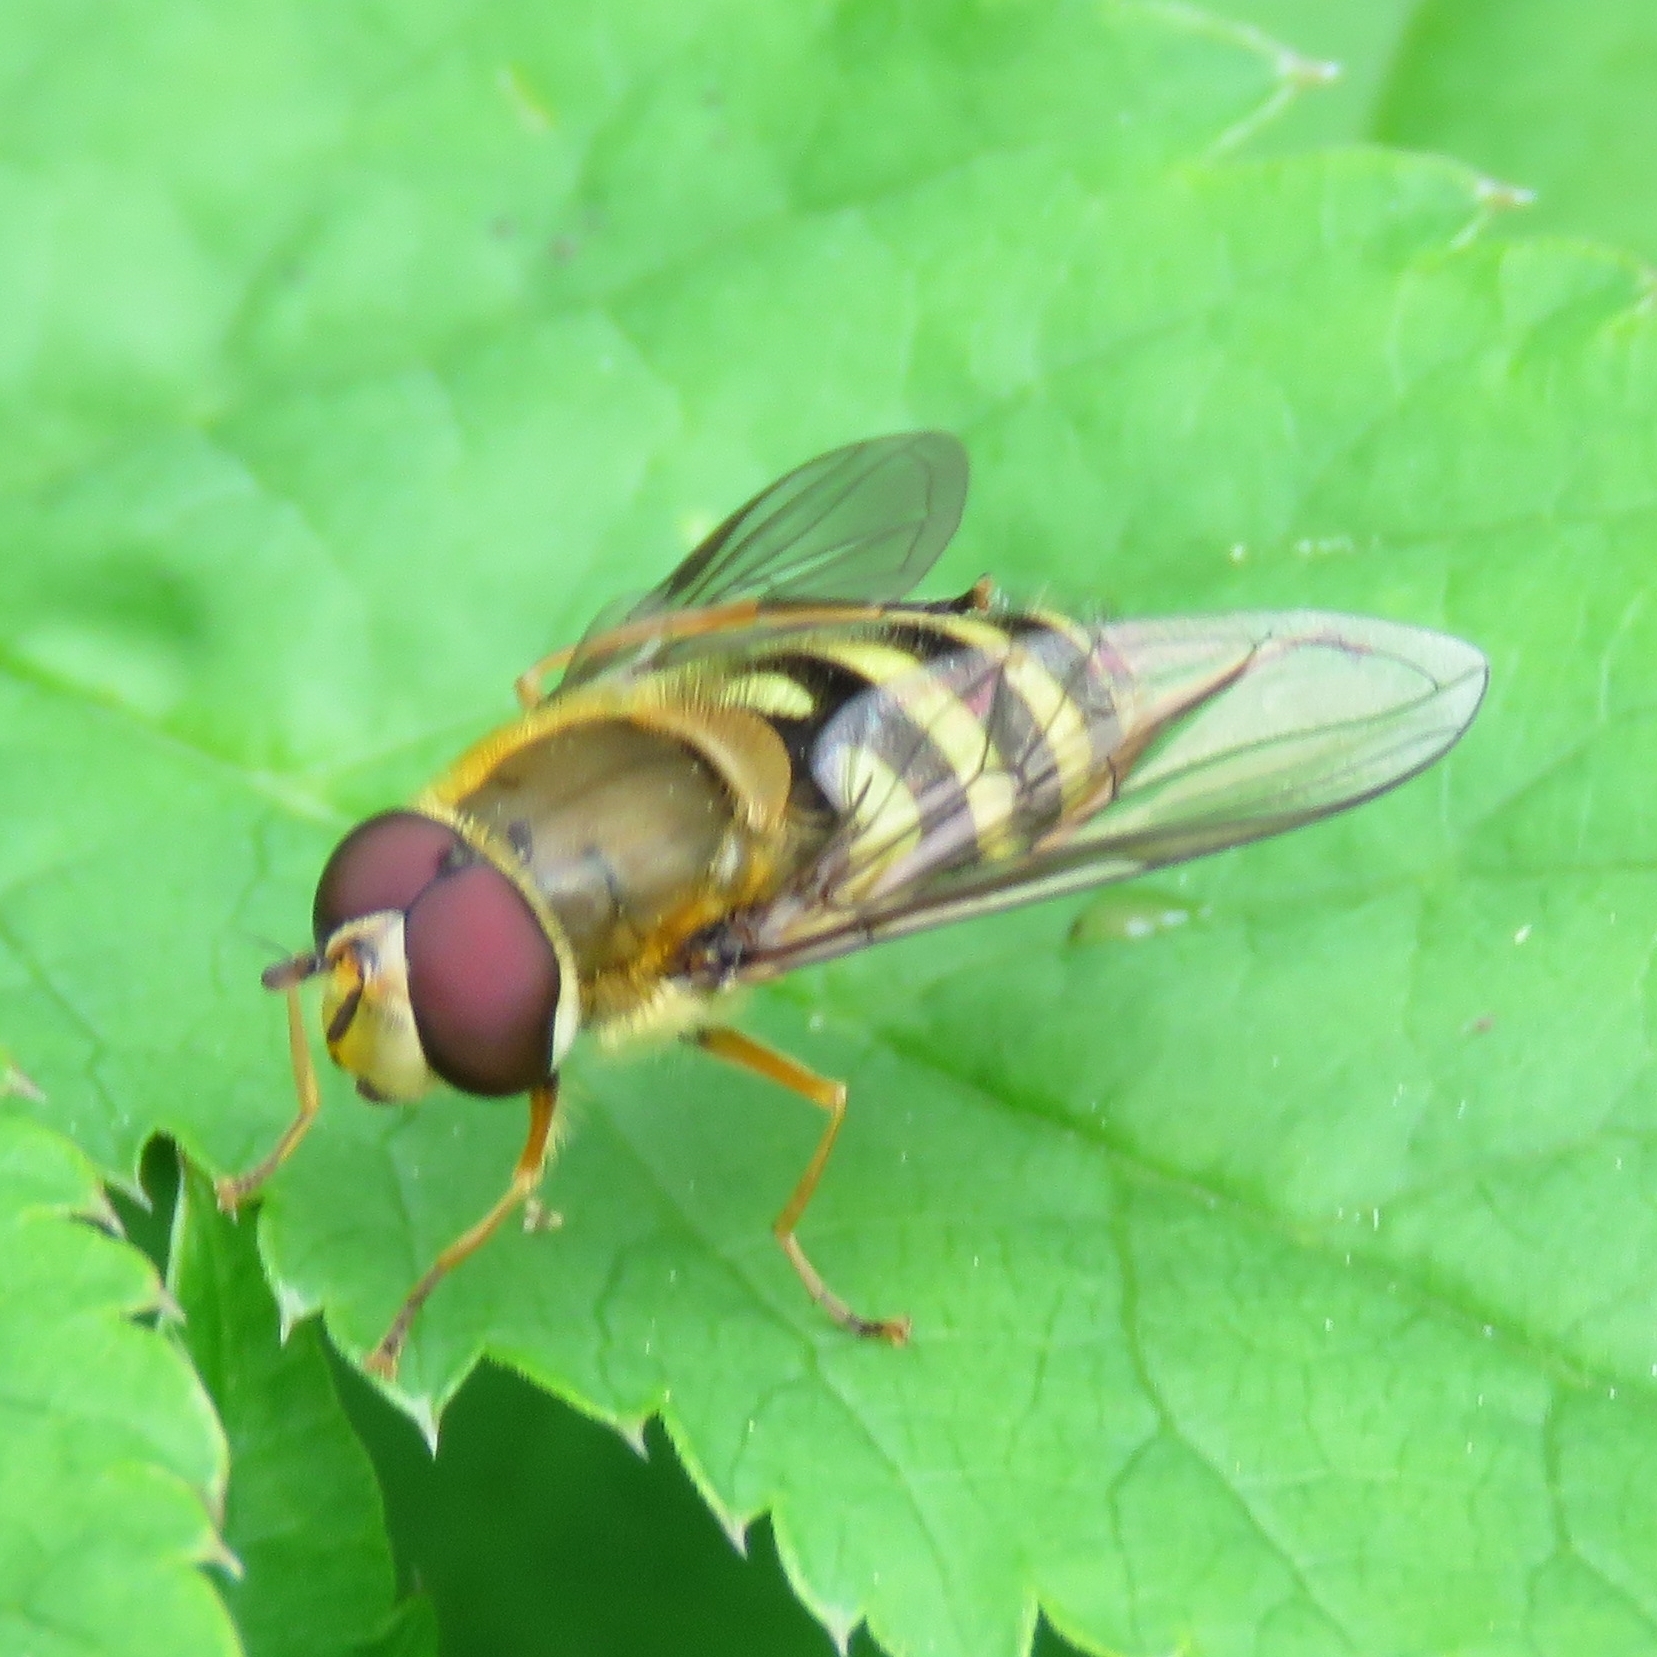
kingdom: Animalia
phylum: Arthropoda
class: Insecta
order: Diptera
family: Syrphidae
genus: Syrphus
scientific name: Syrphus
